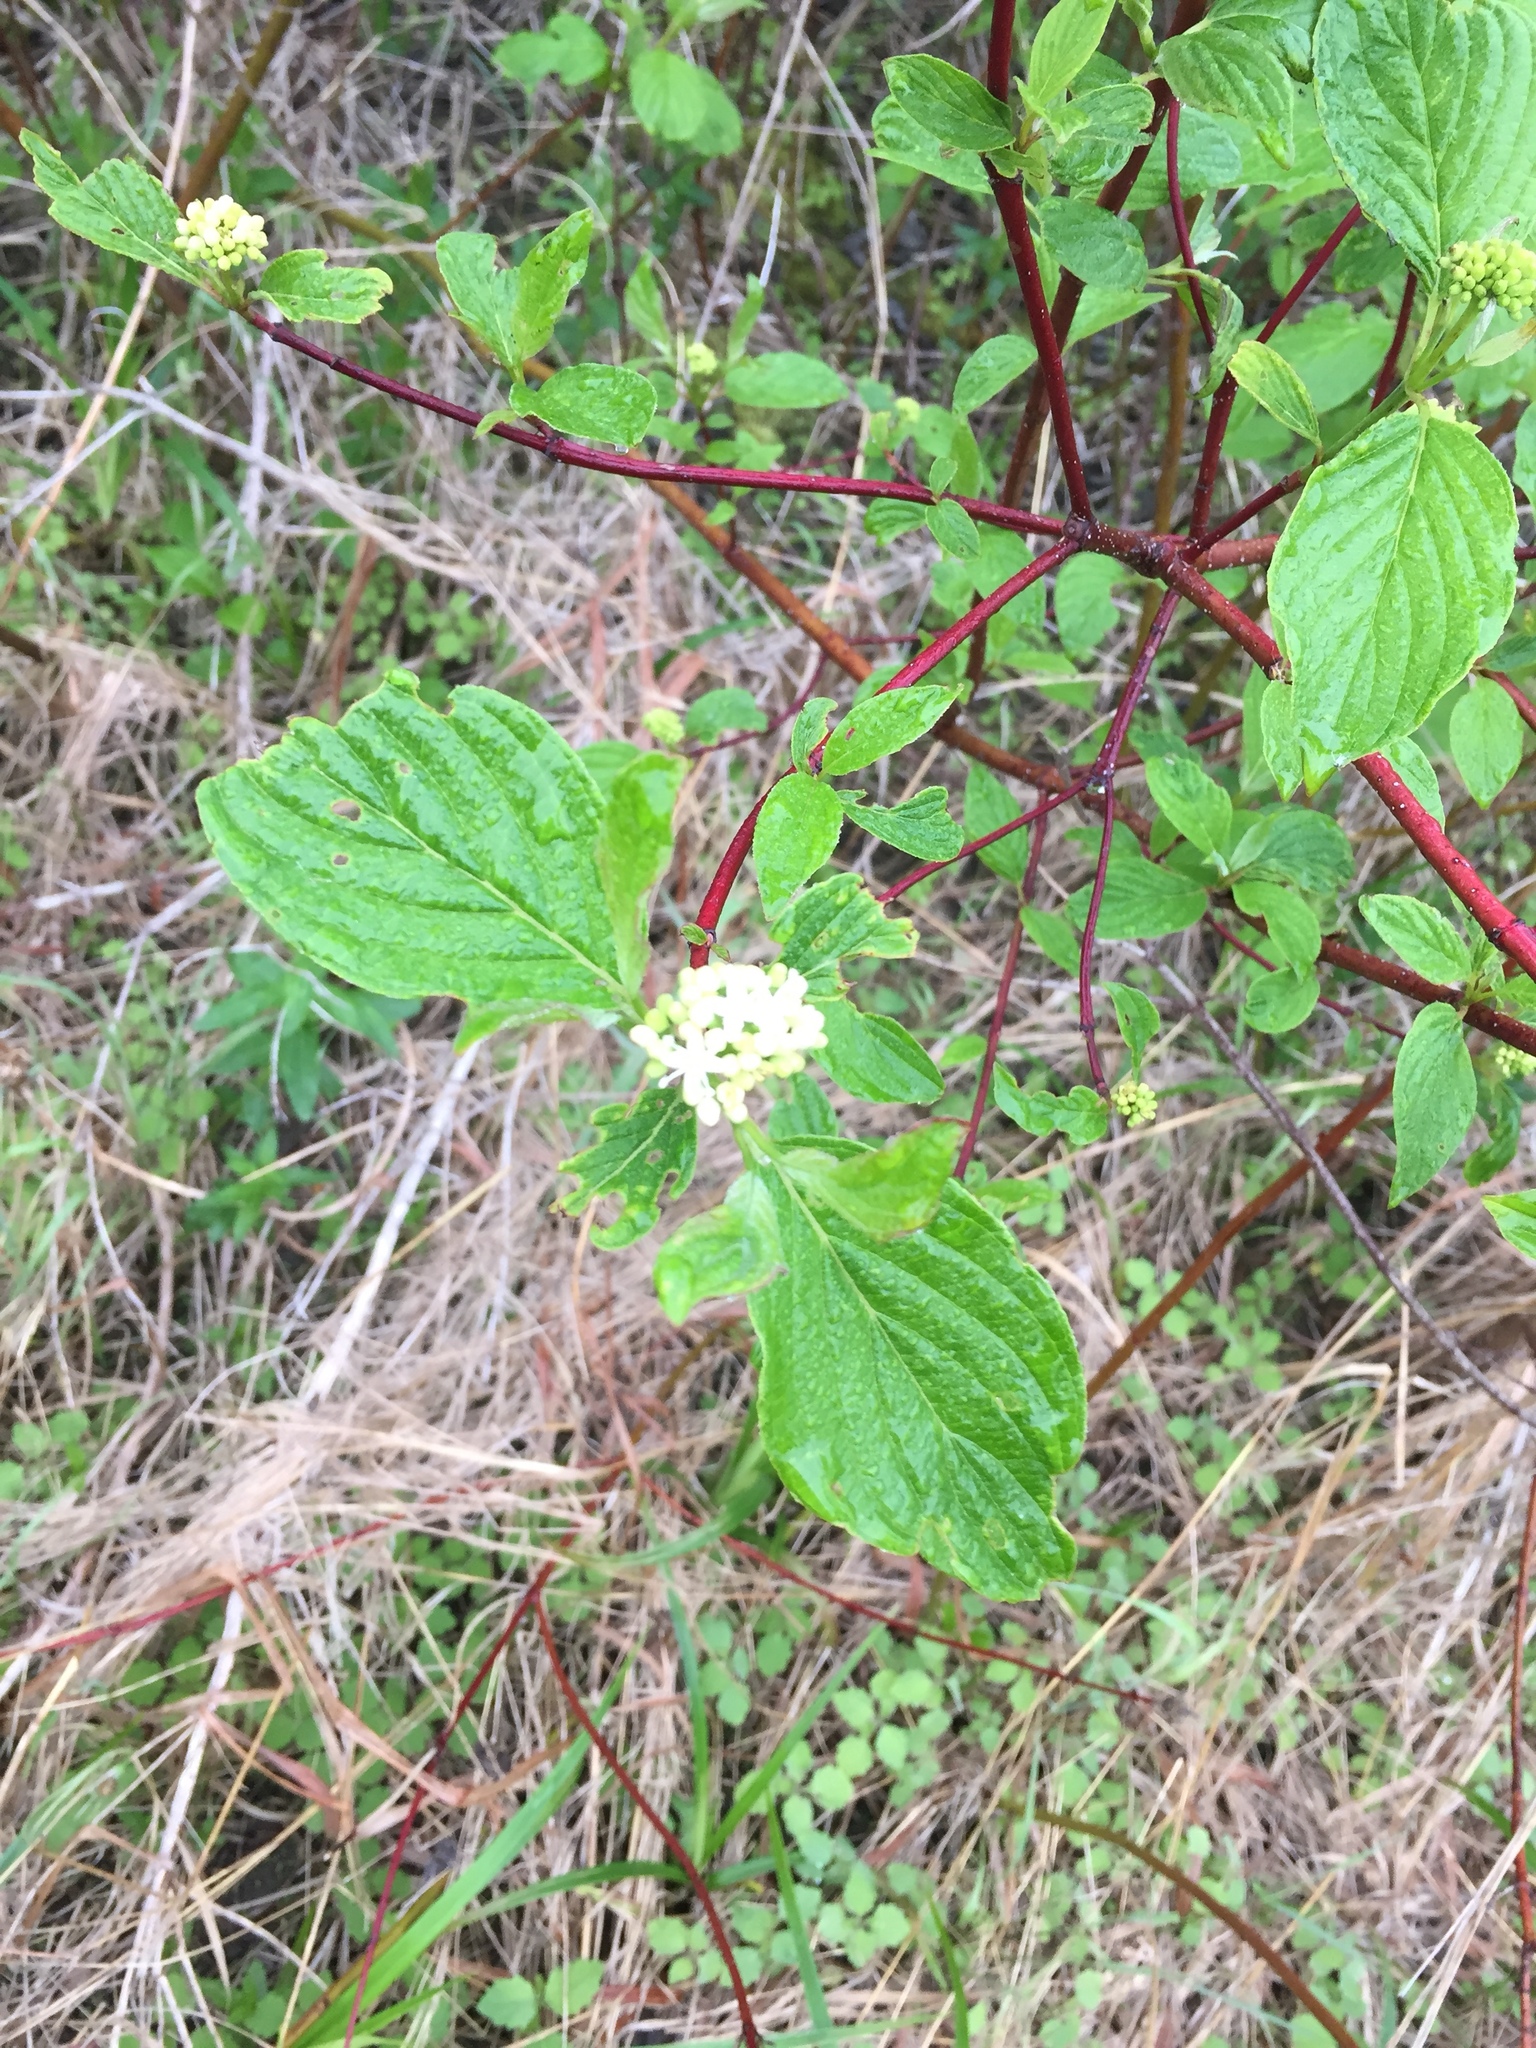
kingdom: Plantae
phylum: Tracheophyta
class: Magnoliopsida
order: Cornales
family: Cornaceae
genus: Cornus
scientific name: Cornus sericea
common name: Red-osier dogwood
